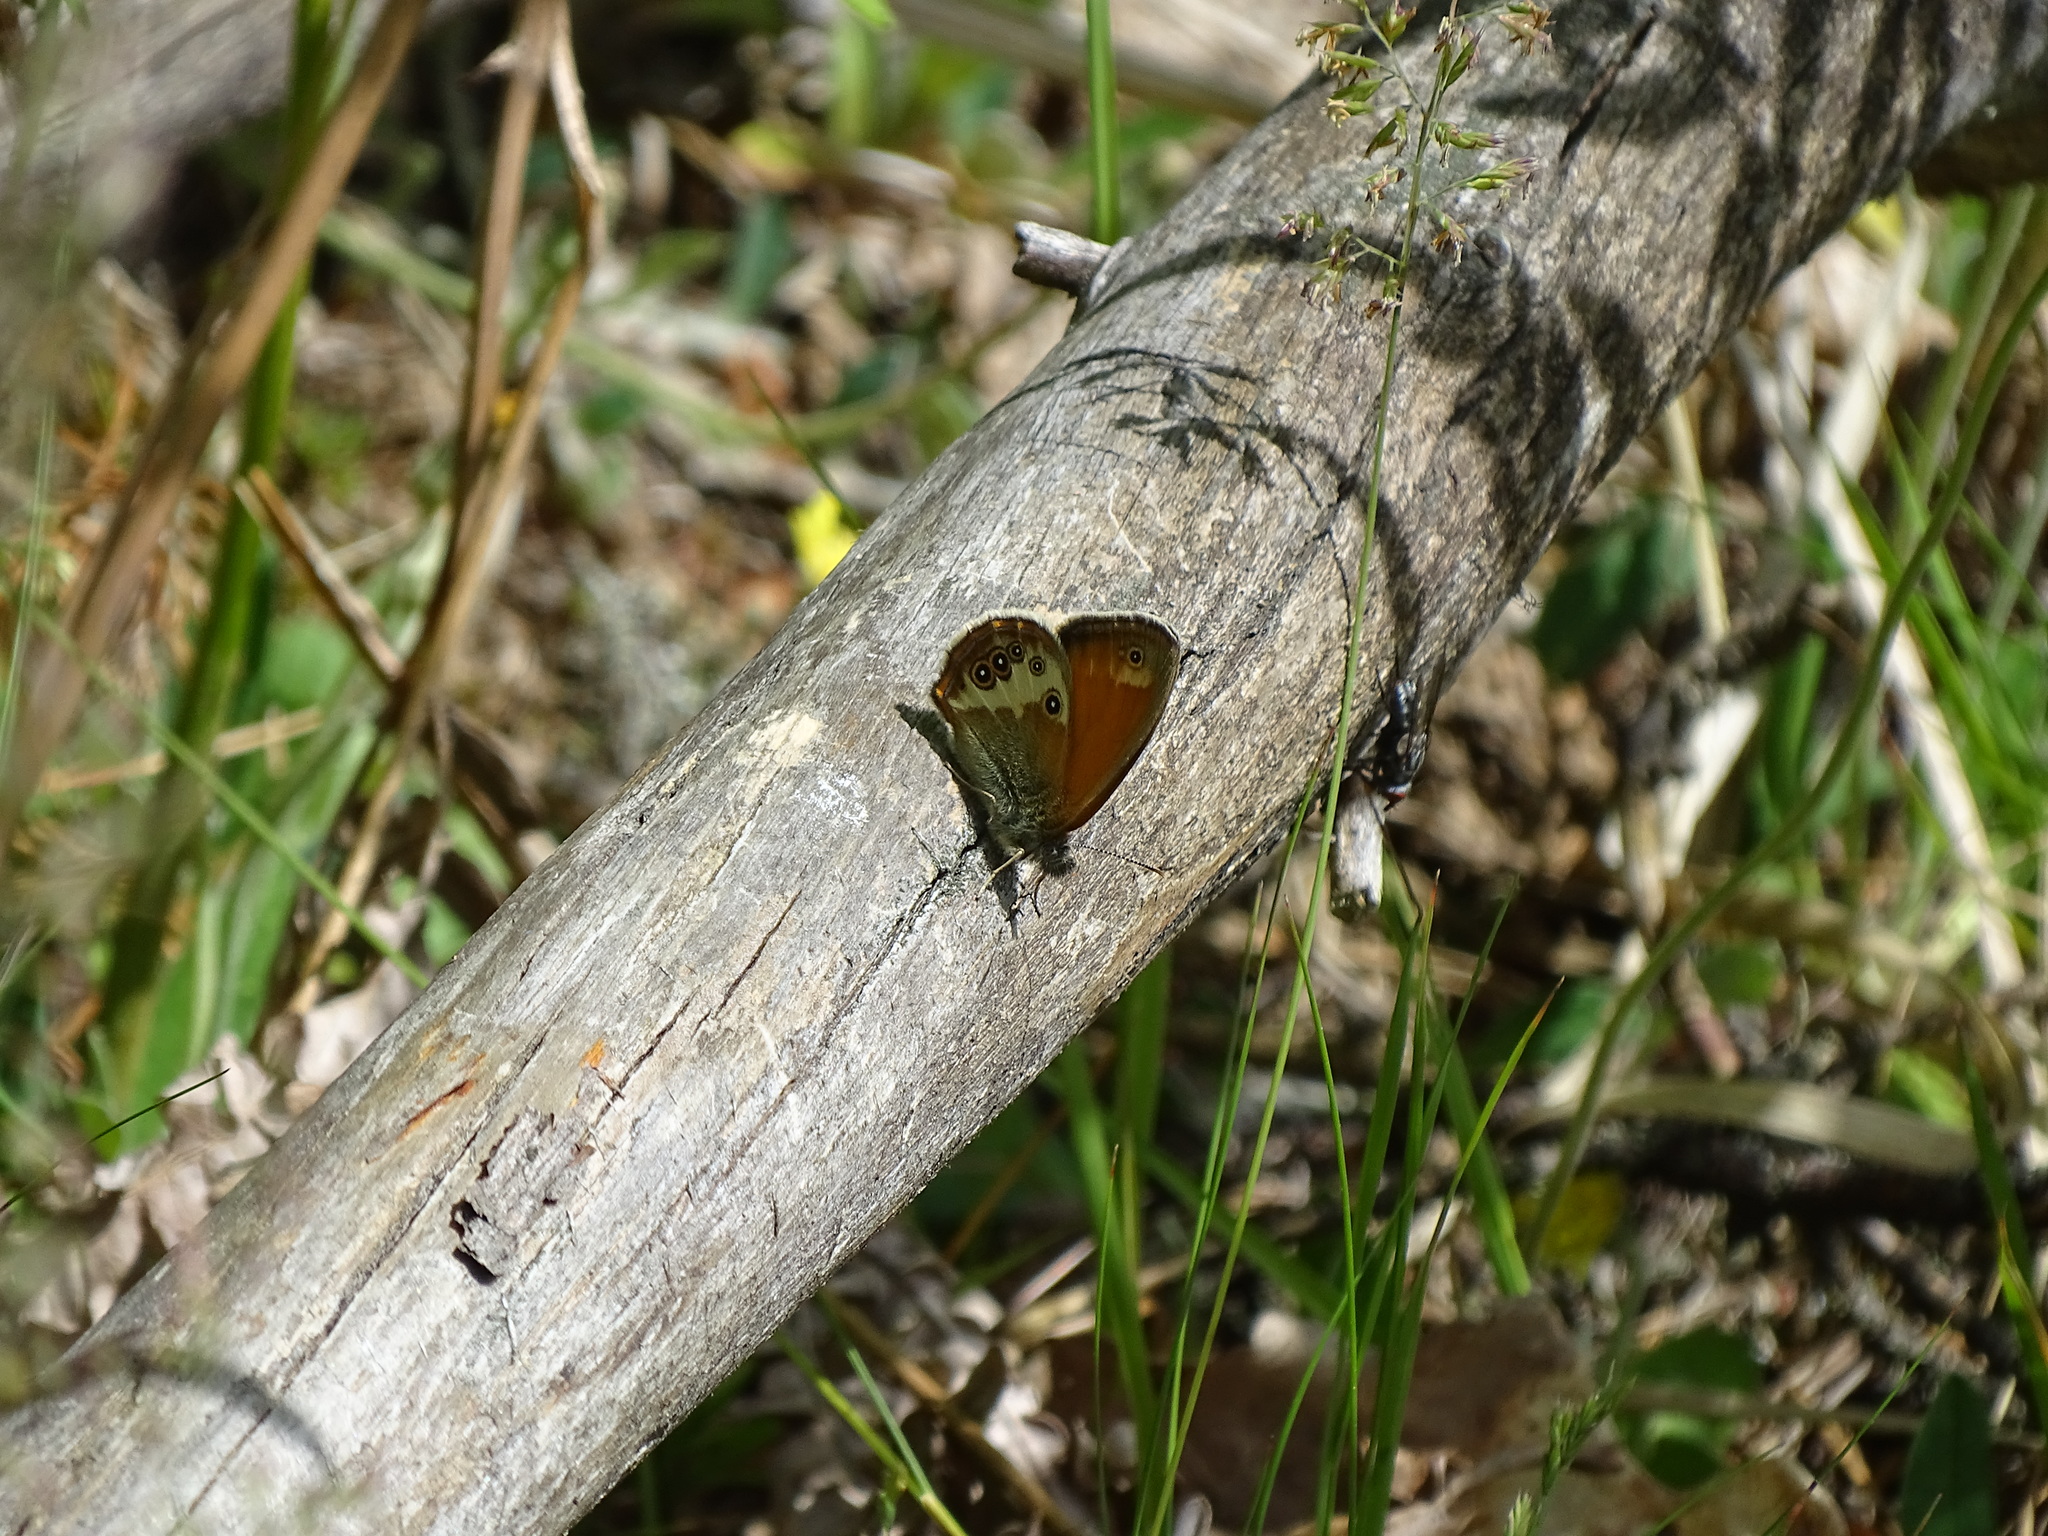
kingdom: Animalia
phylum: Arthropoda
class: Insecta
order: Lepidoptera
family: Nymphalidae
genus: Coenonympha
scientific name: Coenonympha arcania
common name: Pearly heath
